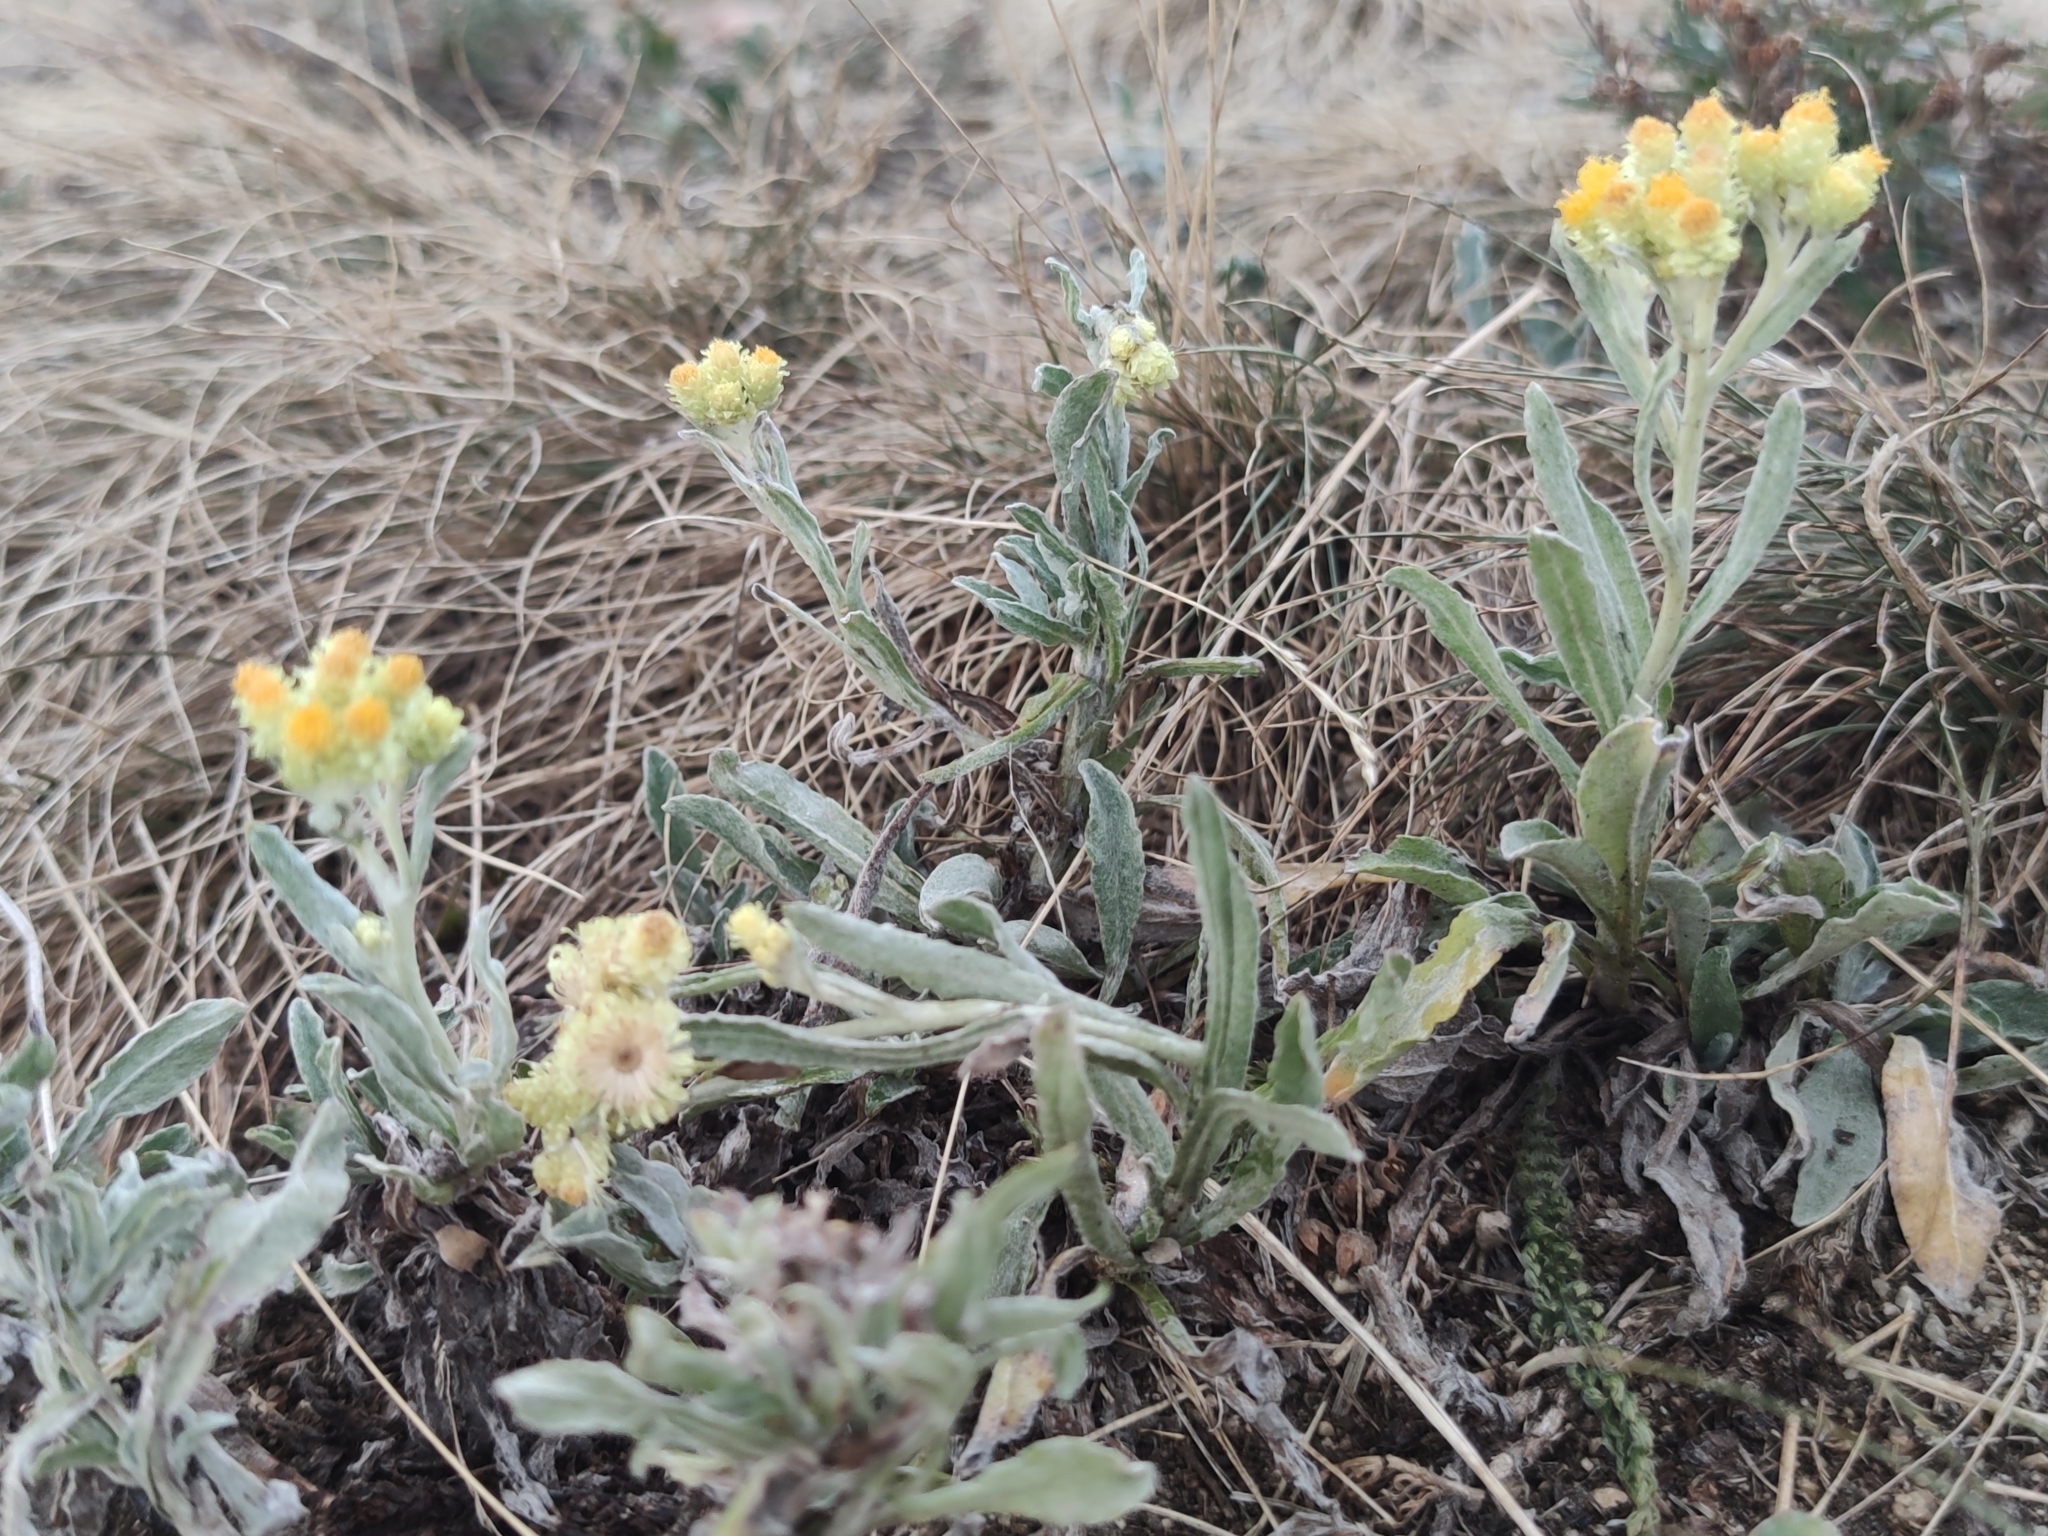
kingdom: Plantae
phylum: Tracheophyta
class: Magnoliopsida
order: Asterales
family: Asteraceae
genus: Helichrysum
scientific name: Helichrysum arenarium
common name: Strawflower
